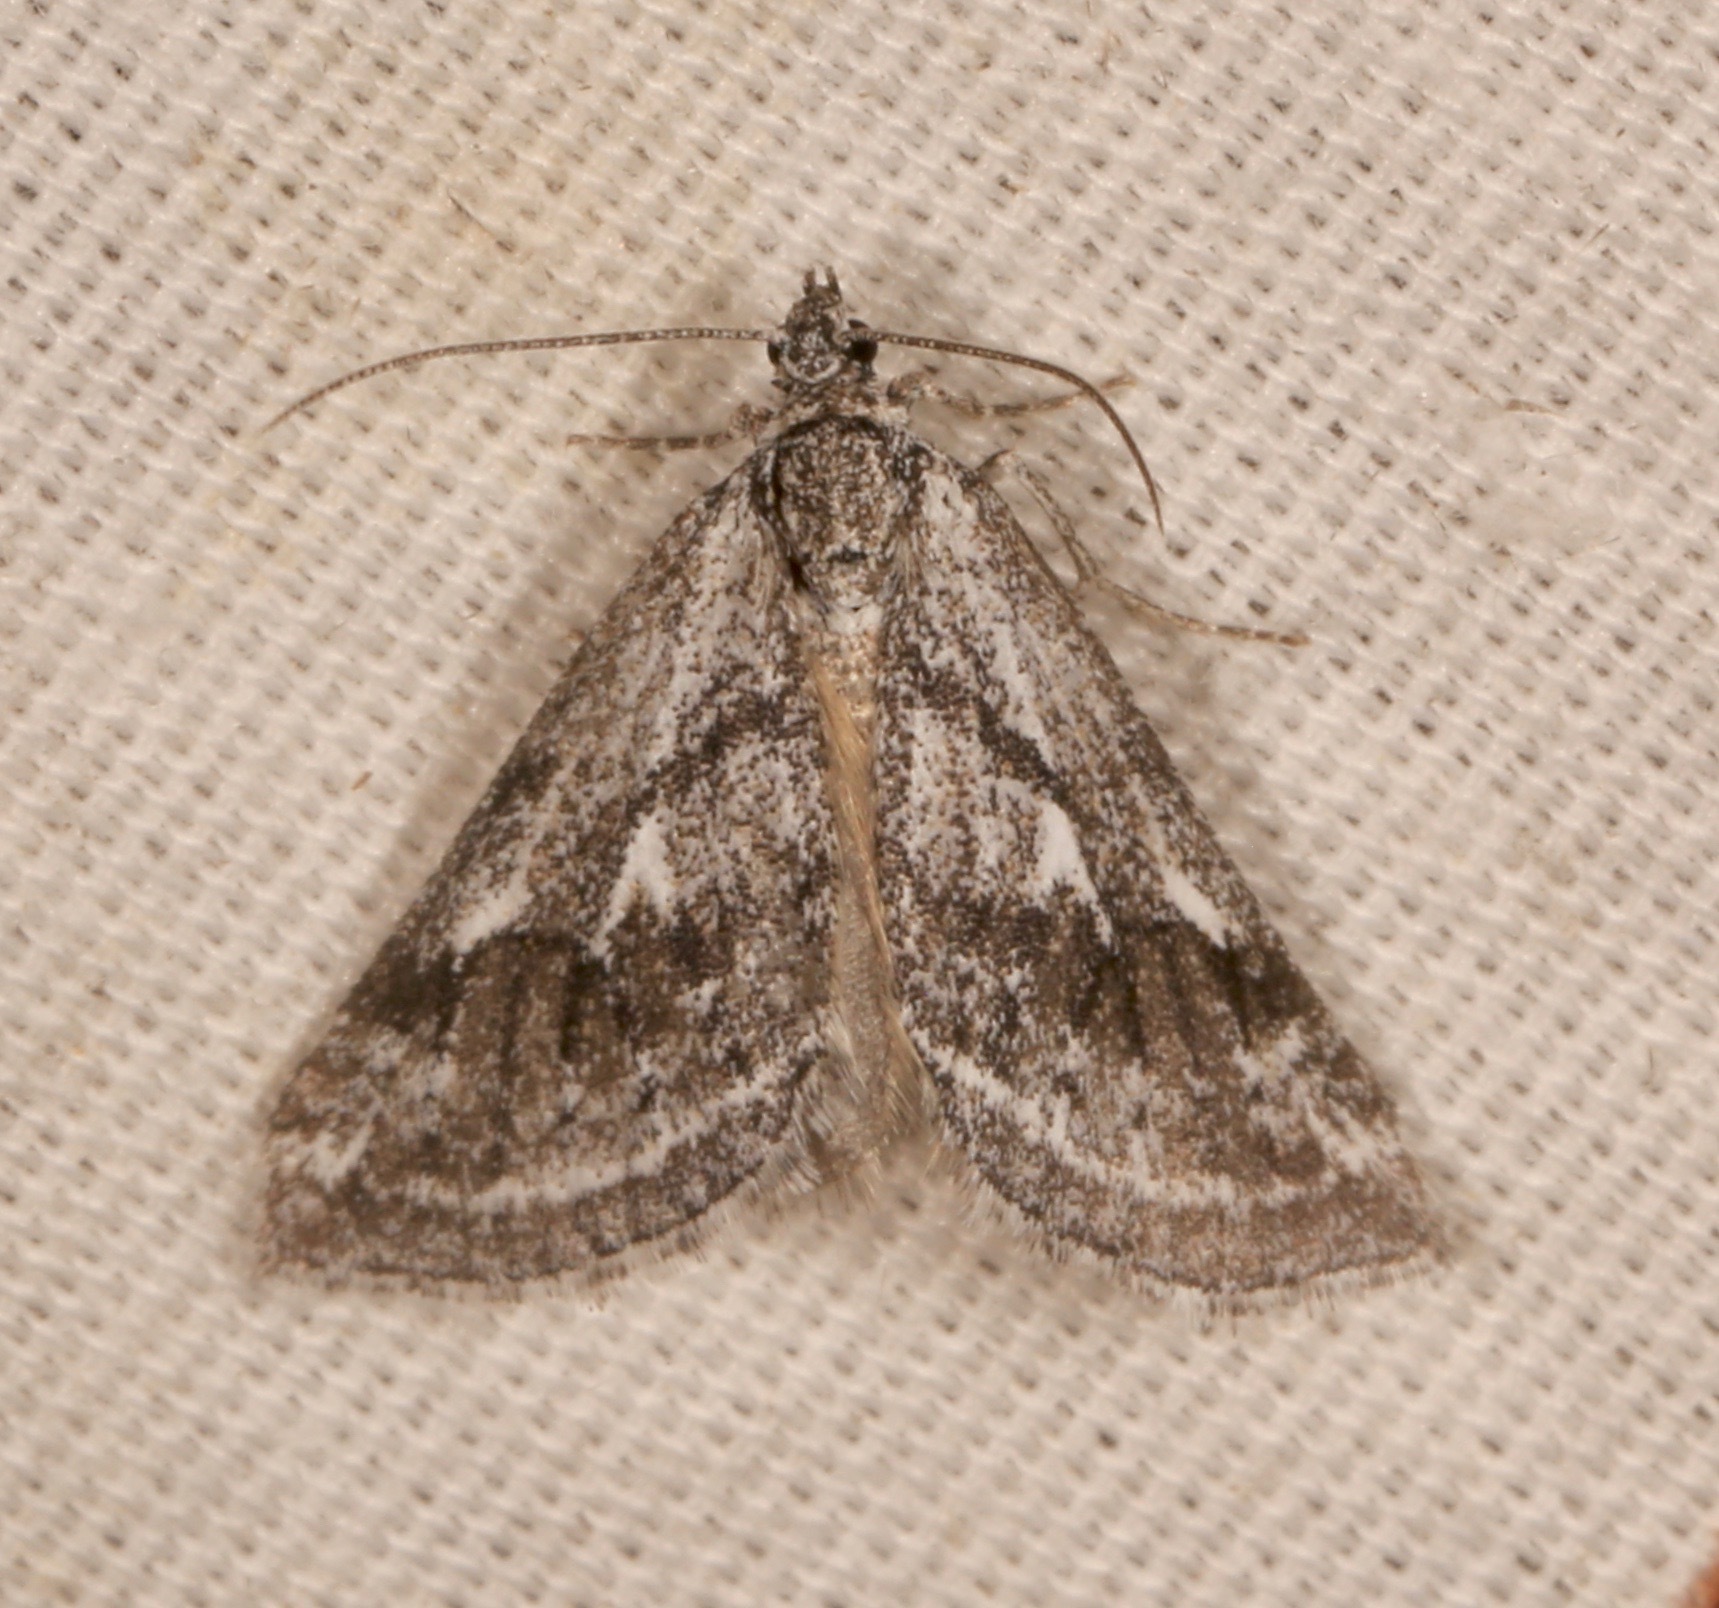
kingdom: Animalia
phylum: Arthropoda
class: Insecta
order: Lepidoptera
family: Geometridae
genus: Scelidacantha
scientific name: Scelidacantha
